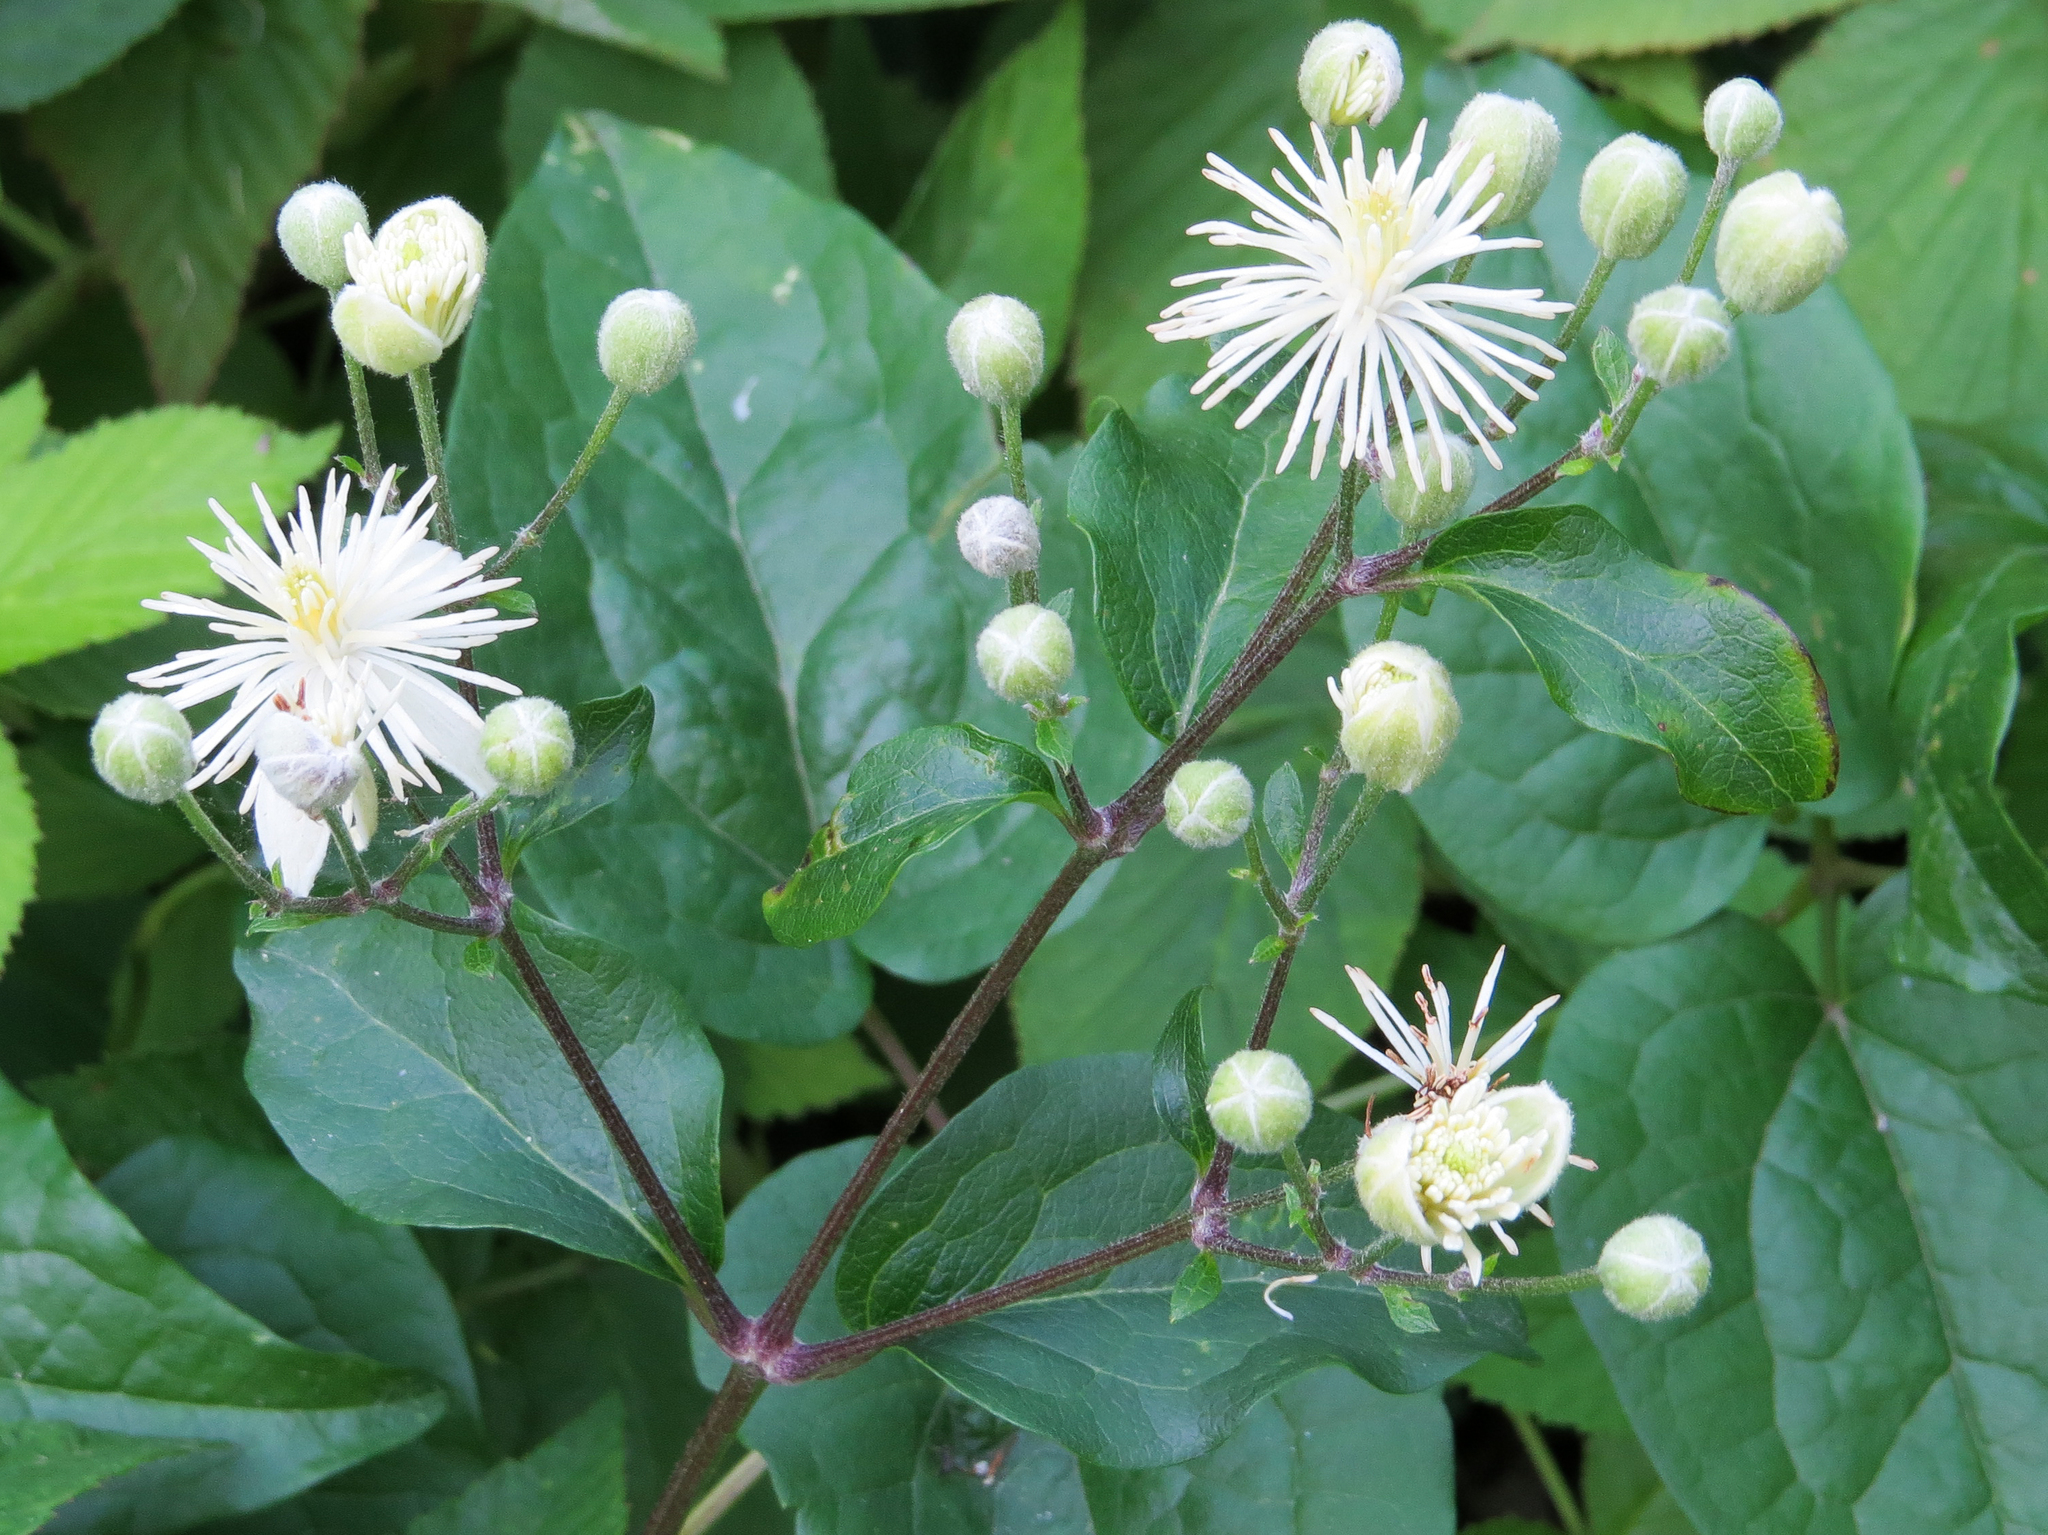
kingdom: Plantae
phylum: Tracheophyta
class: Magnoliopsida
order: Ranunculales
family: Ranunculaceae
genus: Clematis
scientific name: Clematis vitalba
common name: Evergreen clematis
